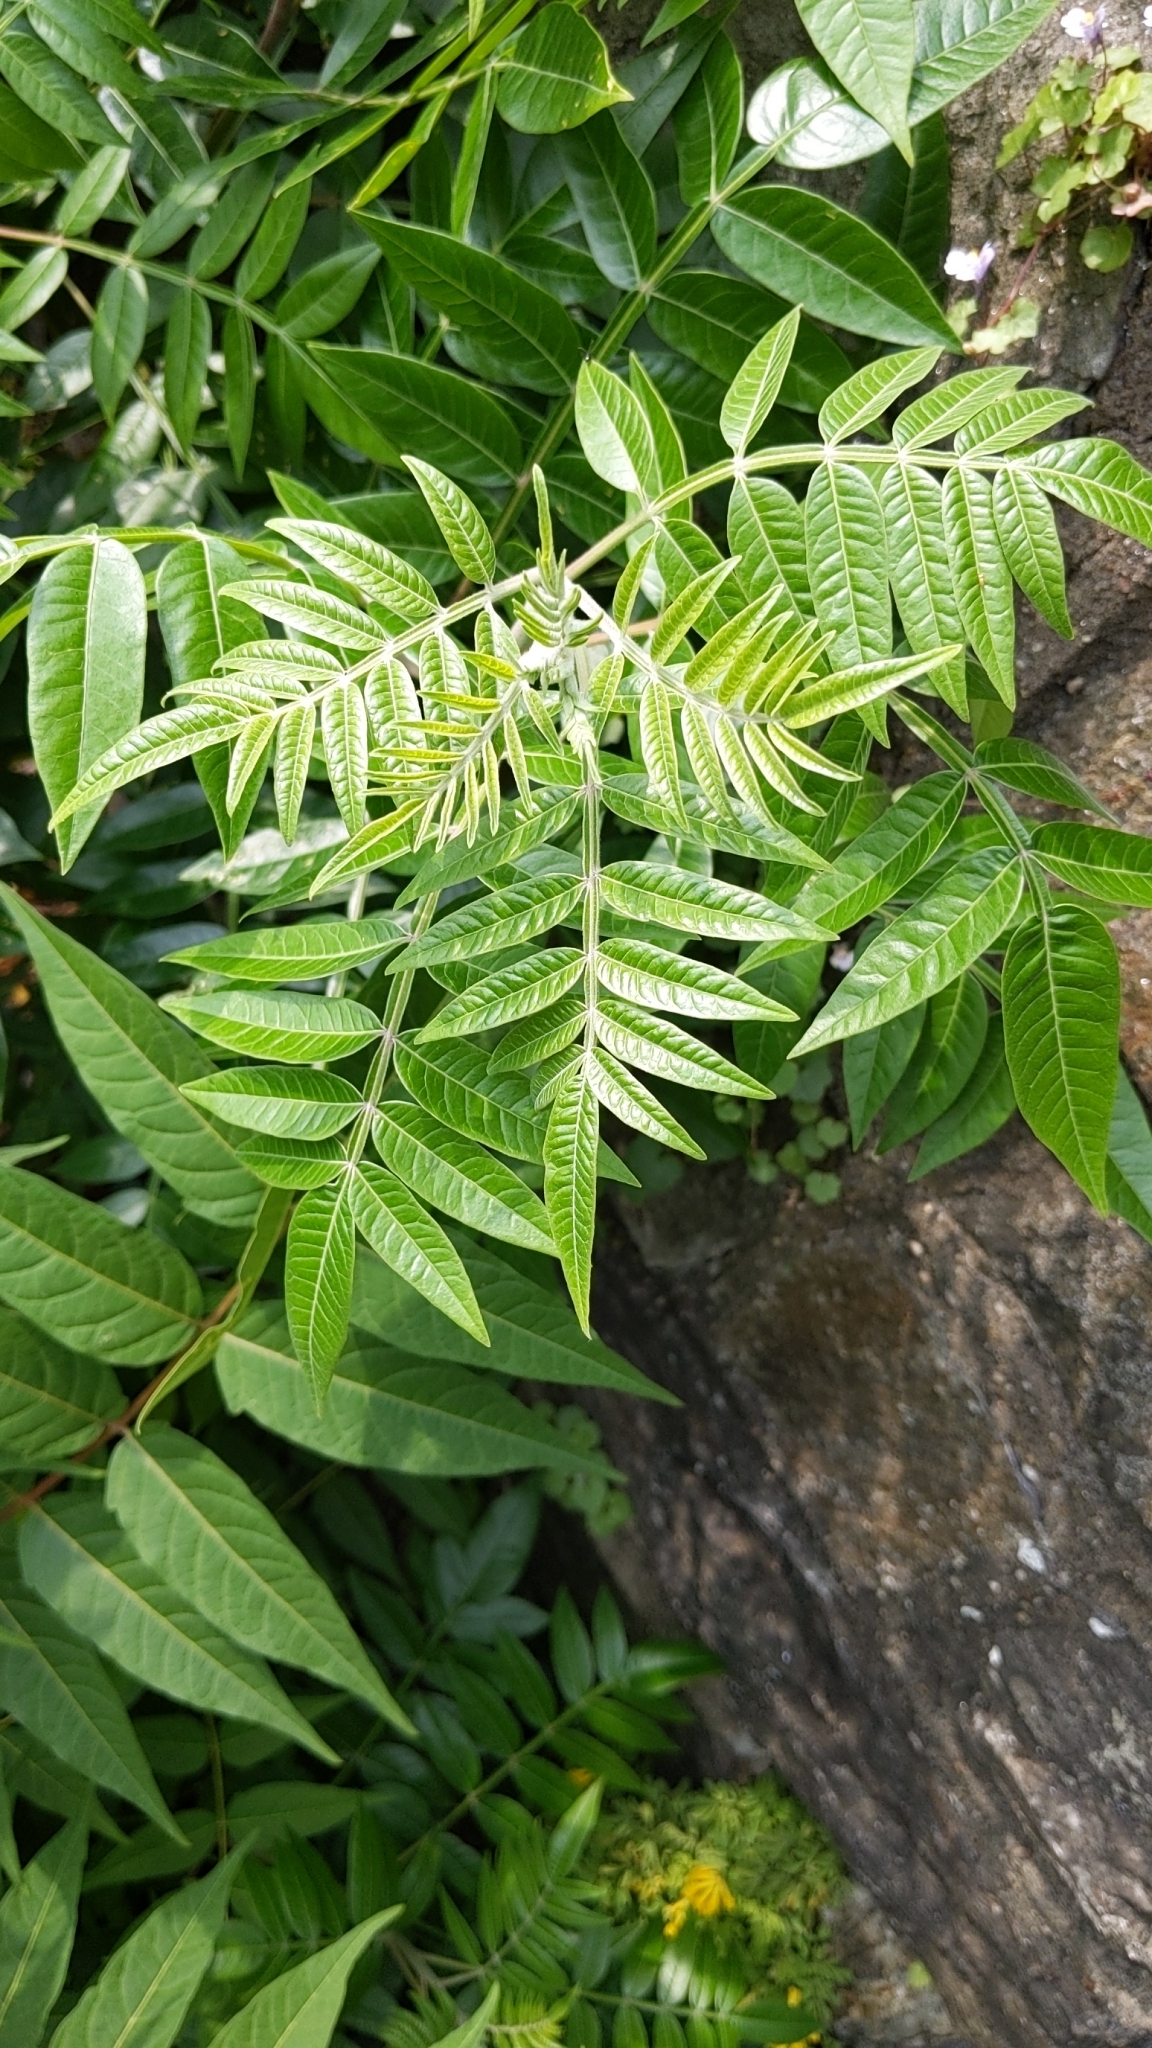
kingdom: Plantae
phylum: Tracheophyta
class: Magnoliopsida
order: Sapindales
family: Anacardiaceae
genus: Rhus
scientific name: Rhus copallina
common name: Shining sumac
